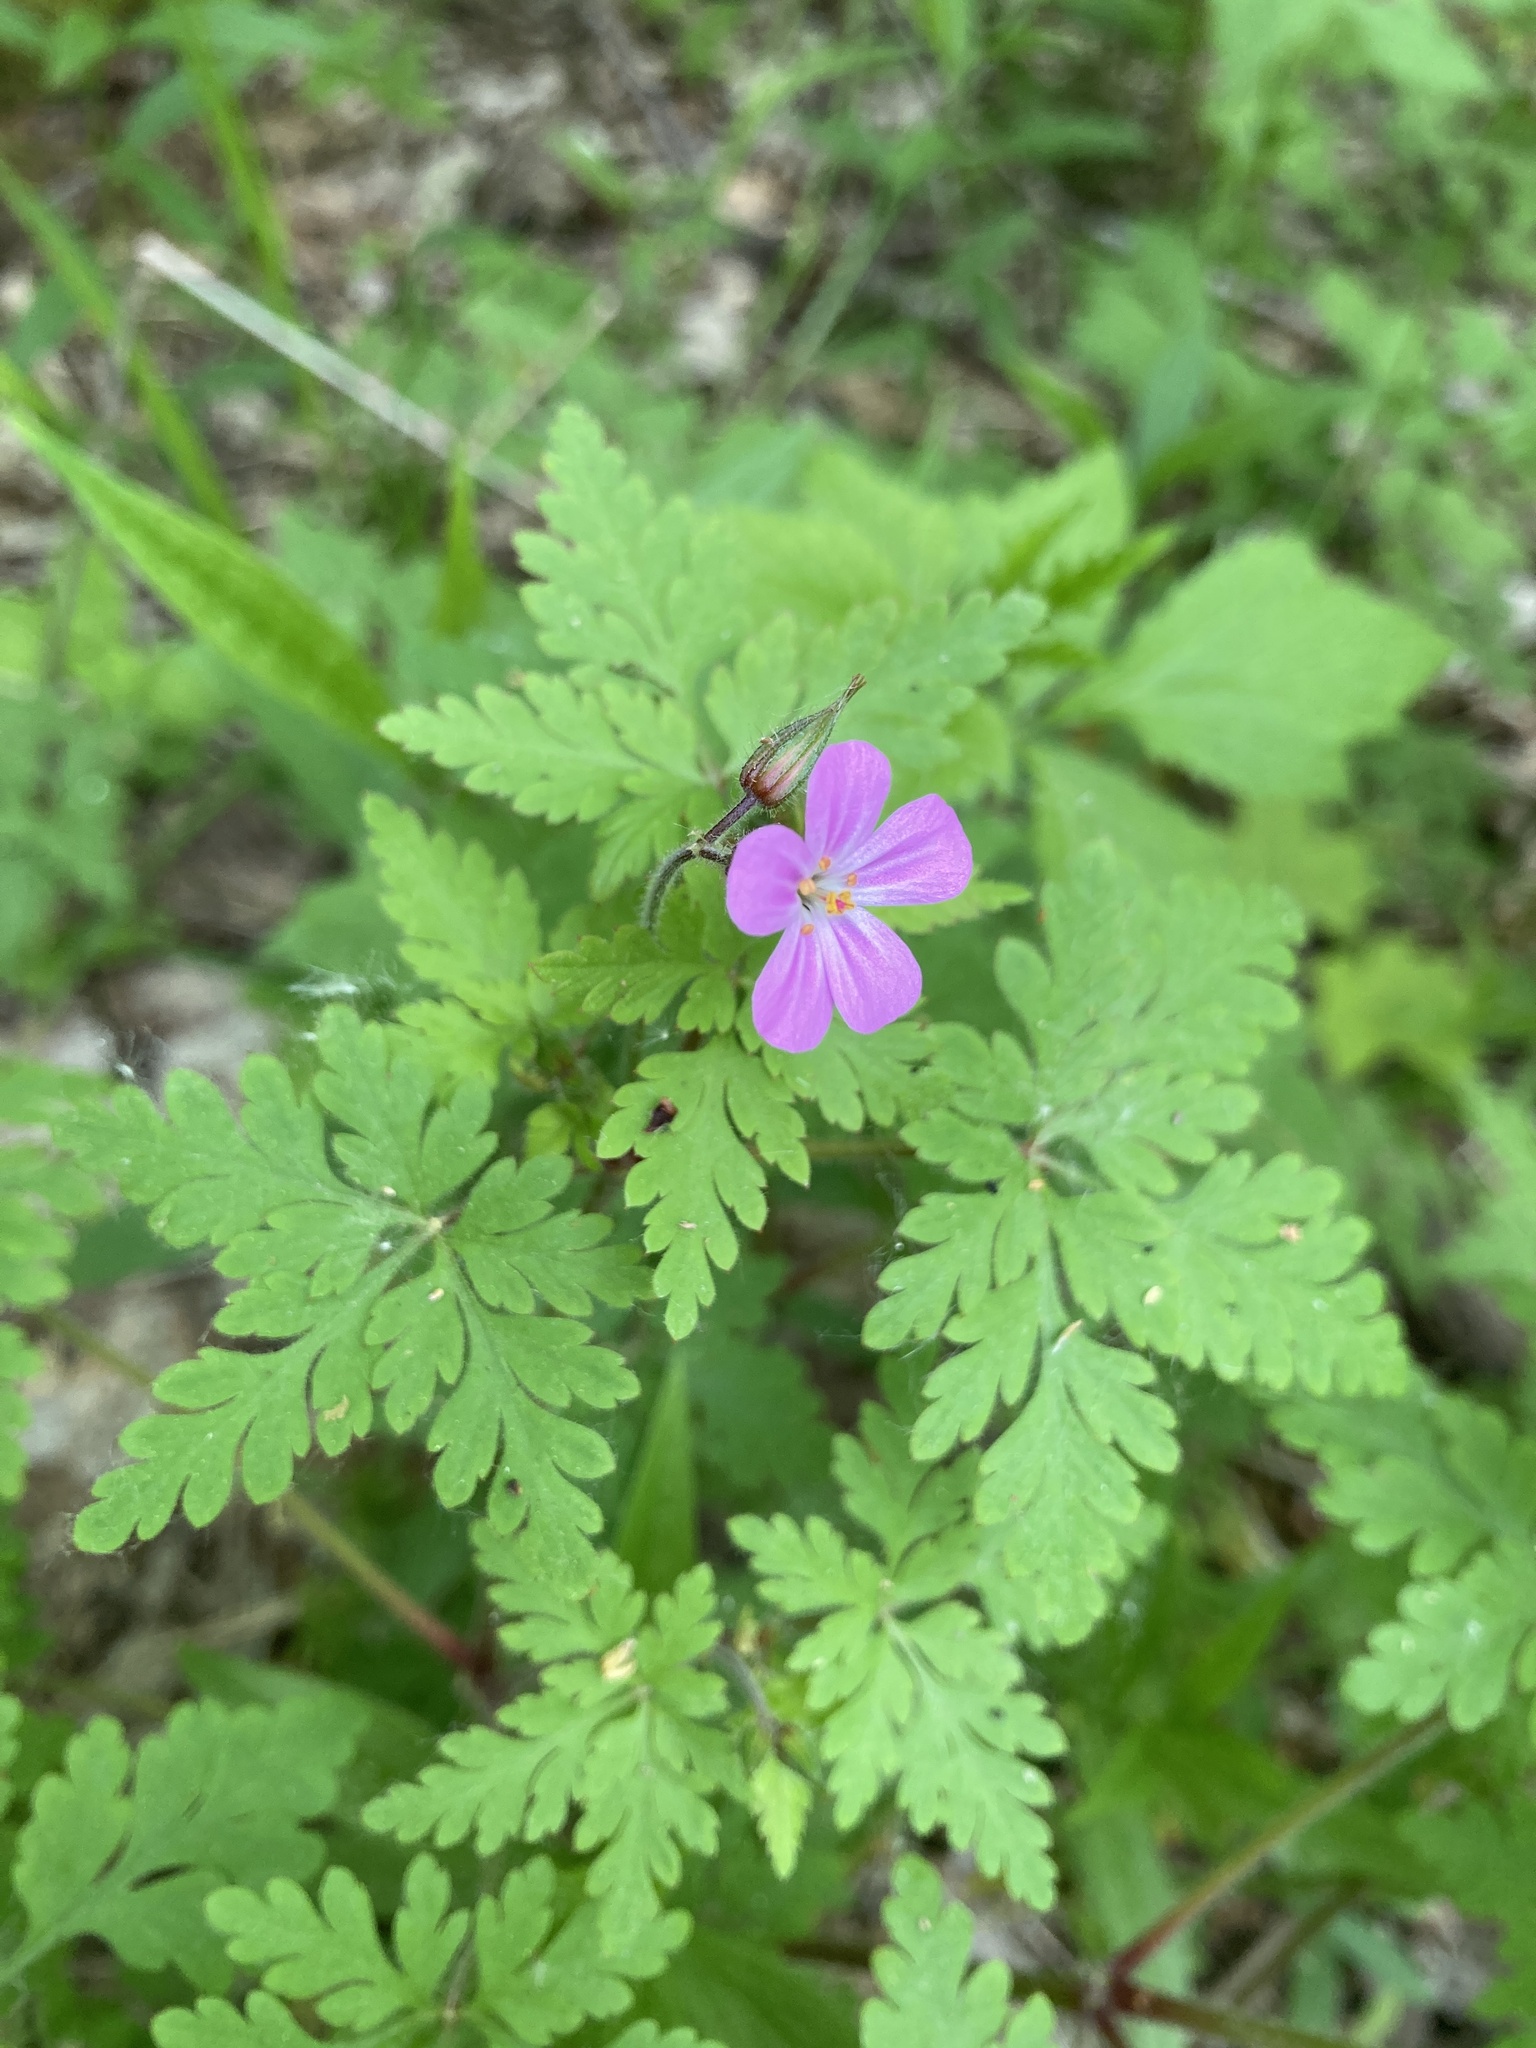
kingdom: Plantae
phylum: Tracheophyta
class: Magnoliopsida
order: Geraniales
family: Geraniaceae
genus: Geranium
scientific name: Geranium robertianum
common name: Herb-robert
